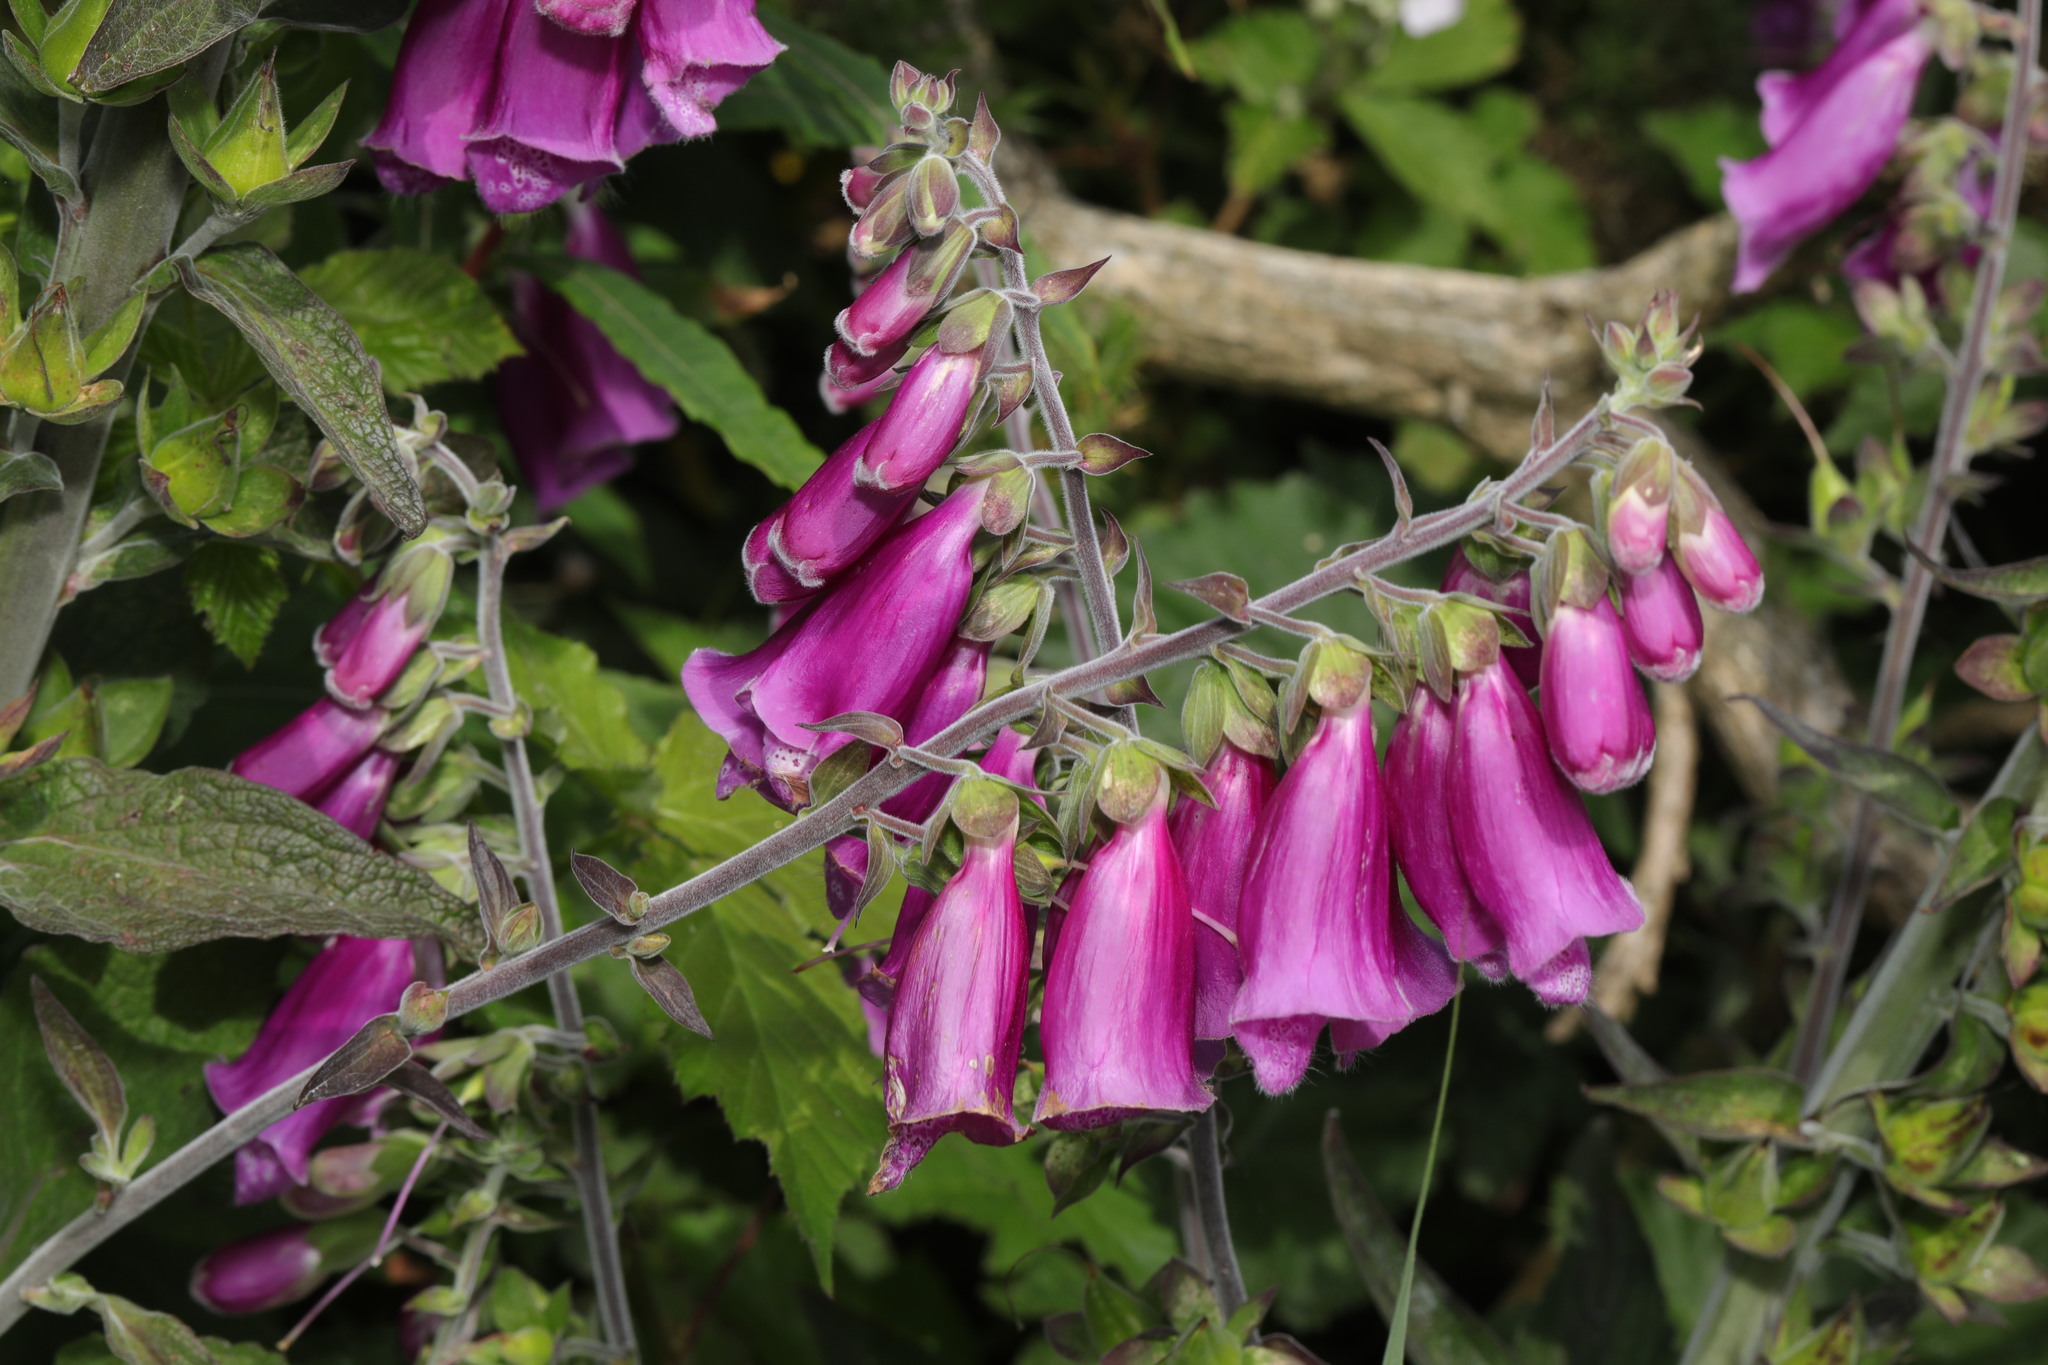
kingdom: Plantae
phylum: Tracheophyta
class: Magnoliopsida
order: Lamiales
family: Plantaginaceae
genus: Digitalis
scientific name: Digitalis purpurea
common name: Foxglove
